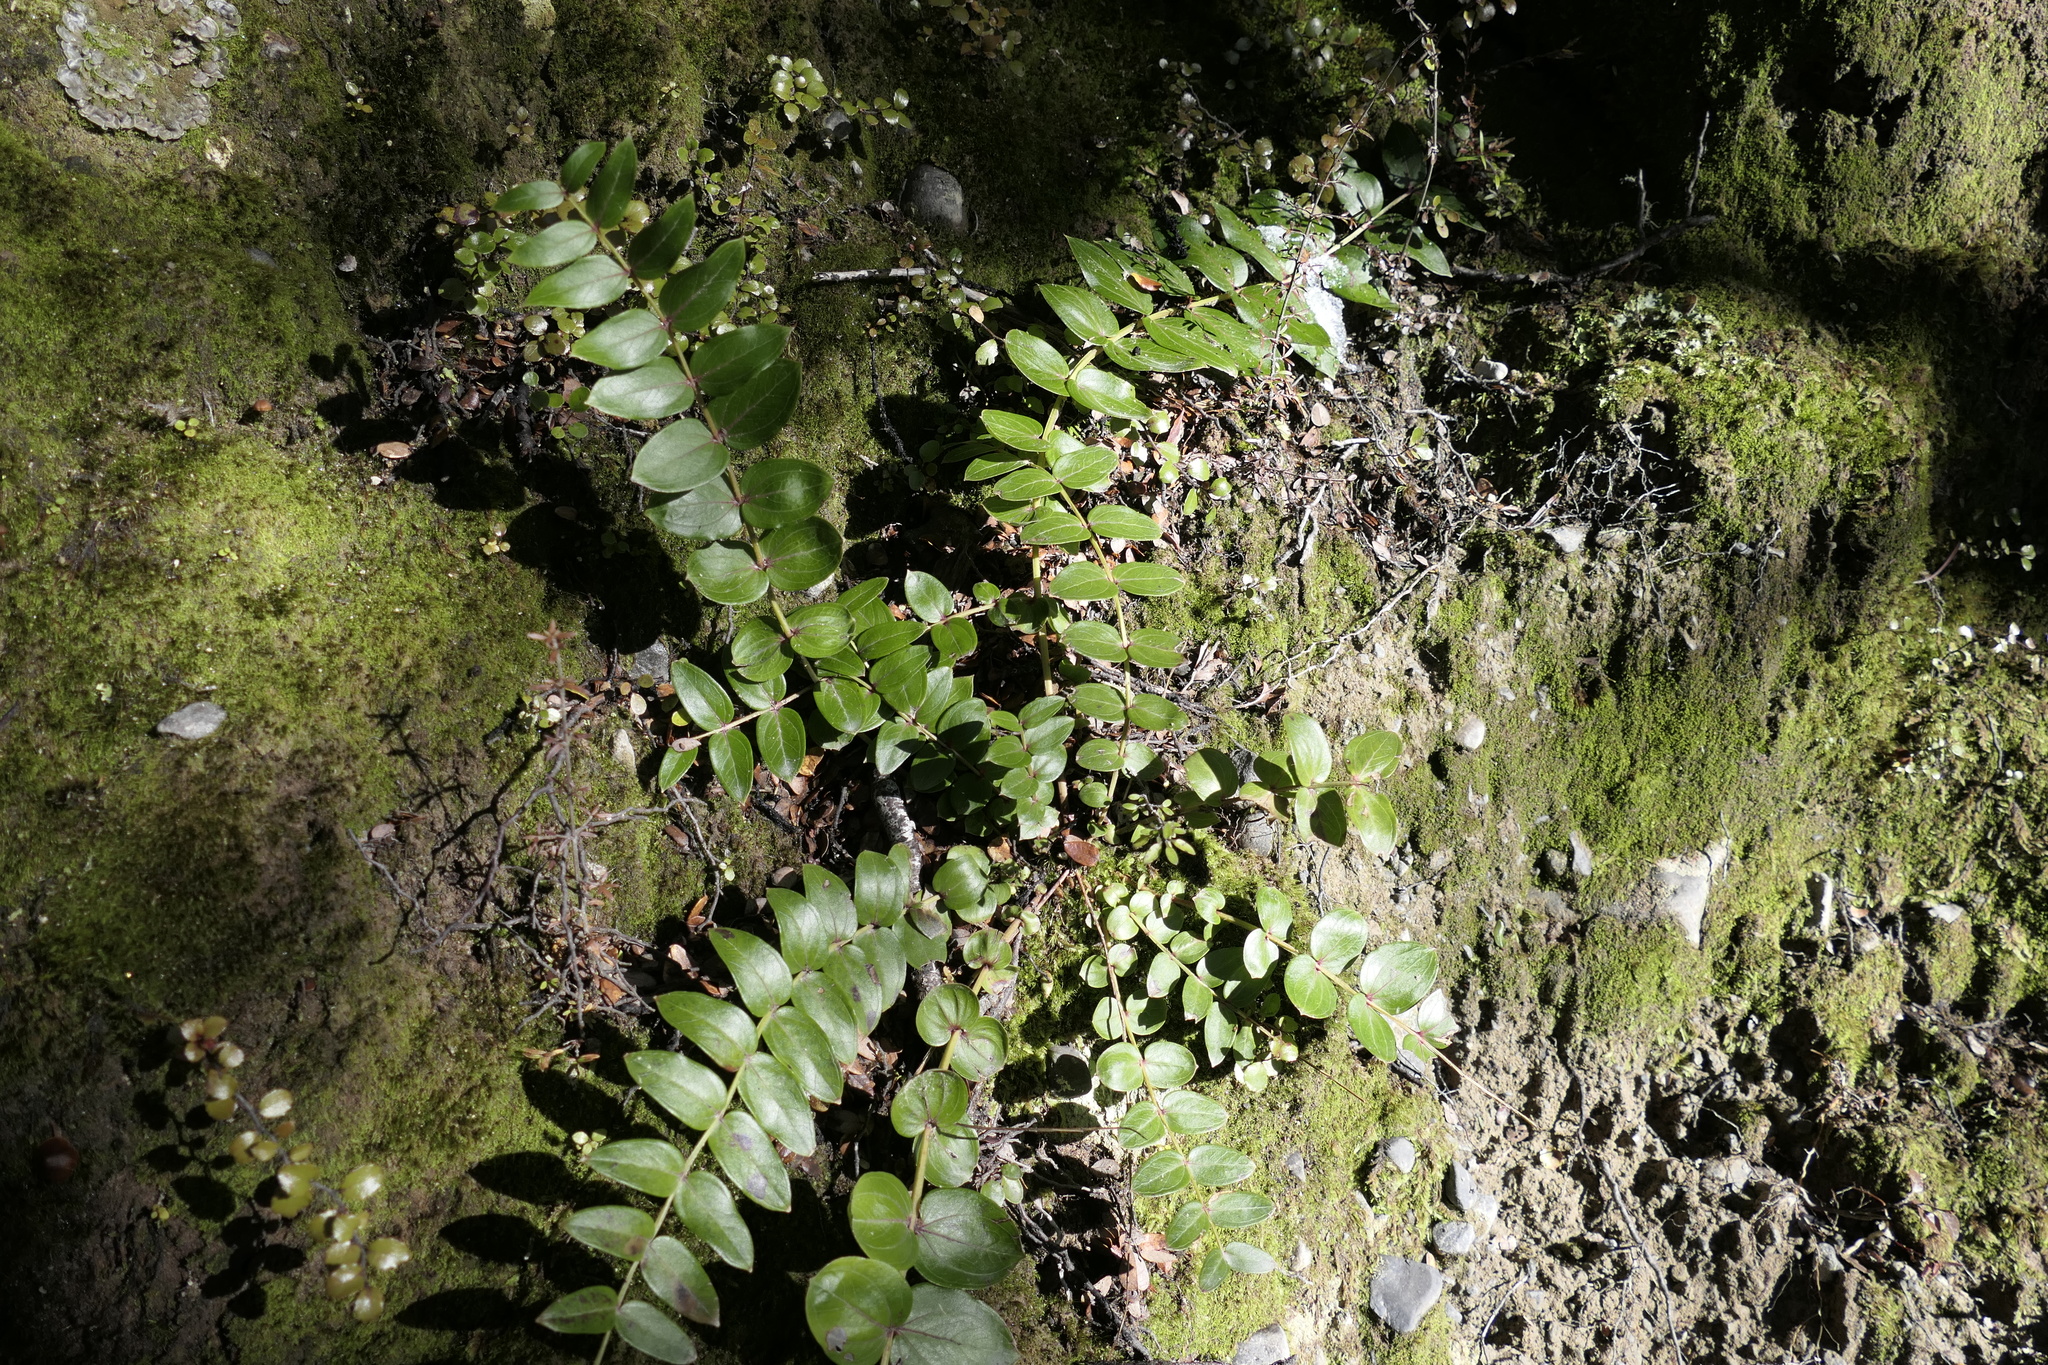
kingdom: Plantae
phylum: Tracheophyta
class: Magnoliopsida
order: Cucurbitales
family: Coriariaceae
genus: Coriaria
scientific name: Coriaria sarmentosa
